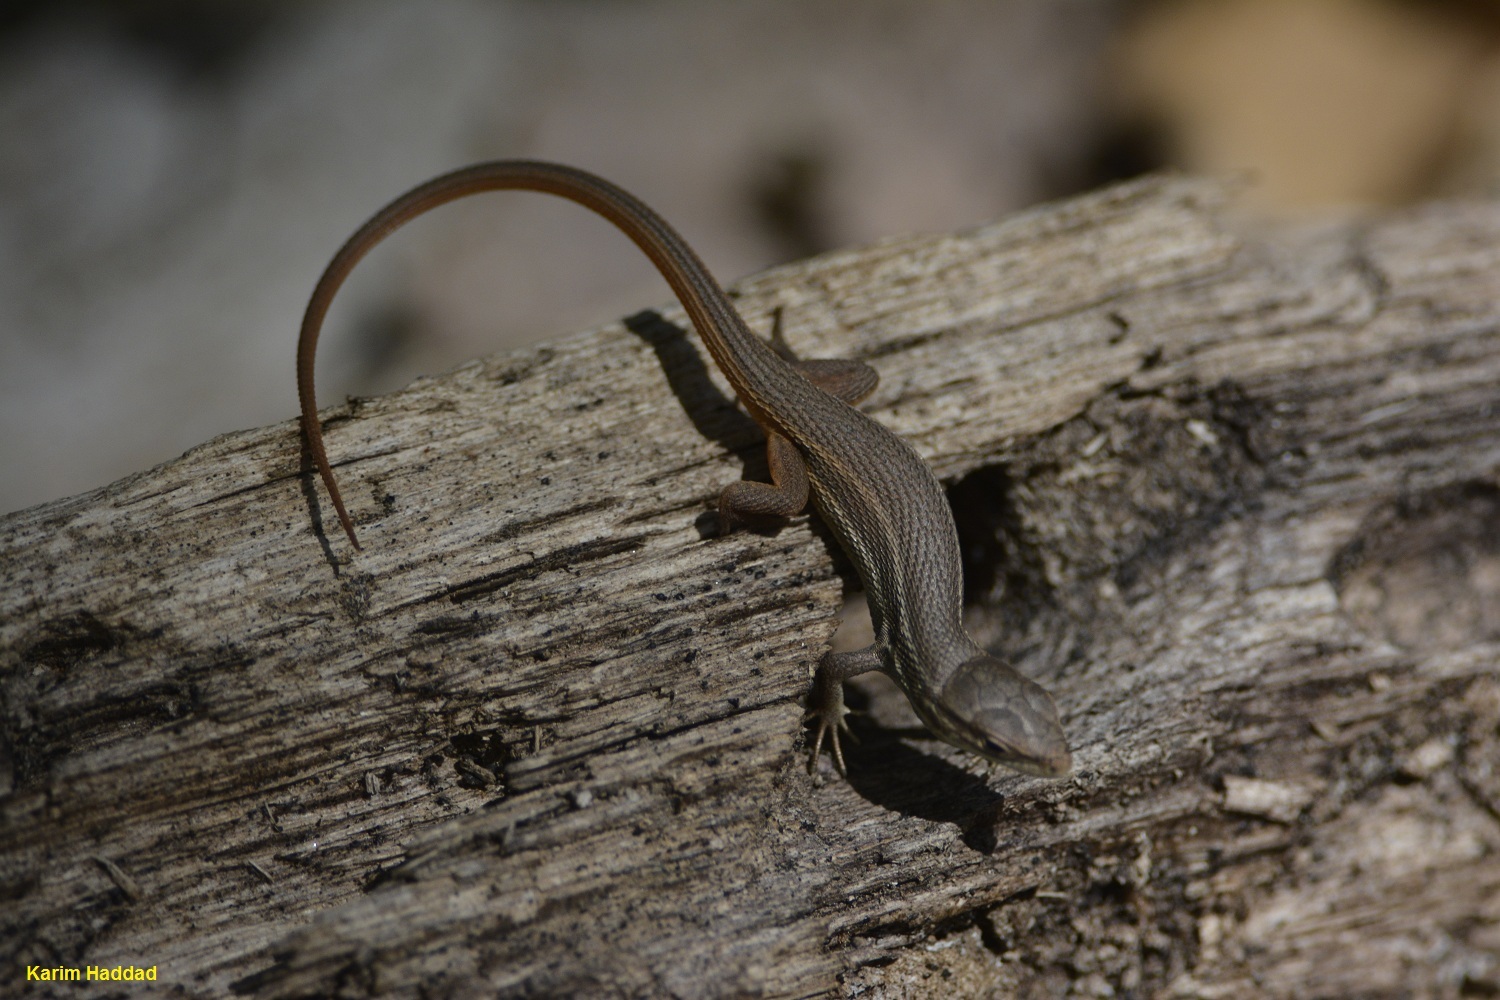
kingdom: Animalia
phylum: Chordata
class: Squamata
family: Lacertidae
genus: Psammodromus
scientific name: Psammodromus algirus
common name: Algerian psammodromus
